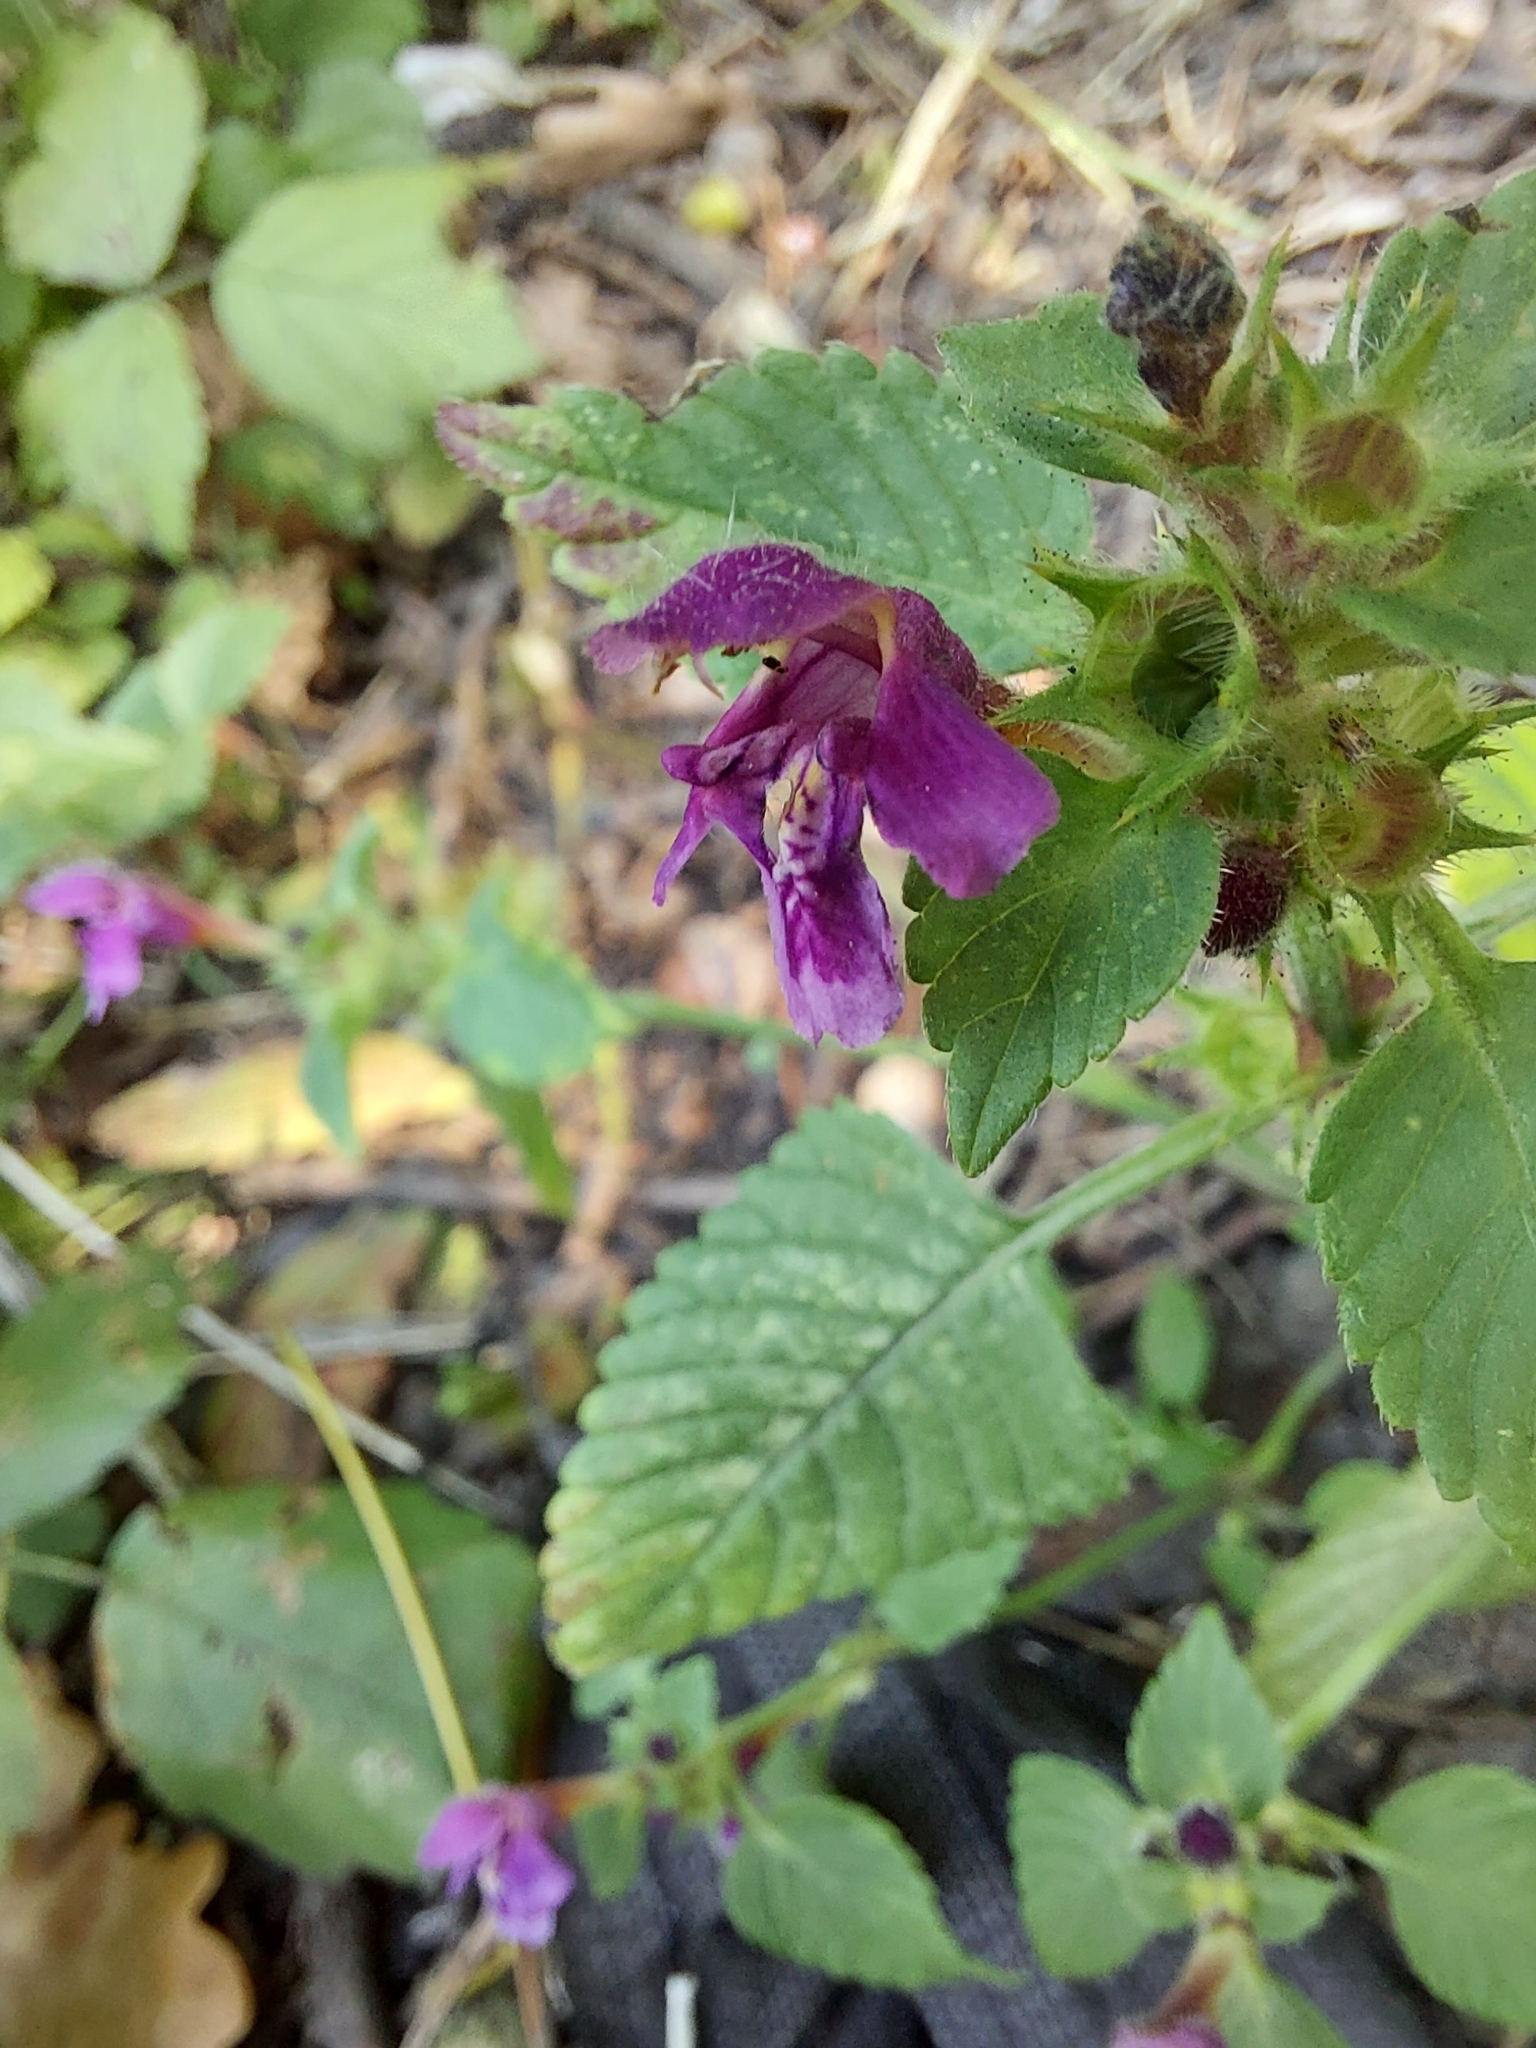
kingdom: Plantae
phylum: Tracheophyta
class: Magnoliopsida
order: Lamiales
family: Lamiaceae
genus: Galeopsis
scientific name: Galeopsis pubescens
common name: Downy hemp-nettle
